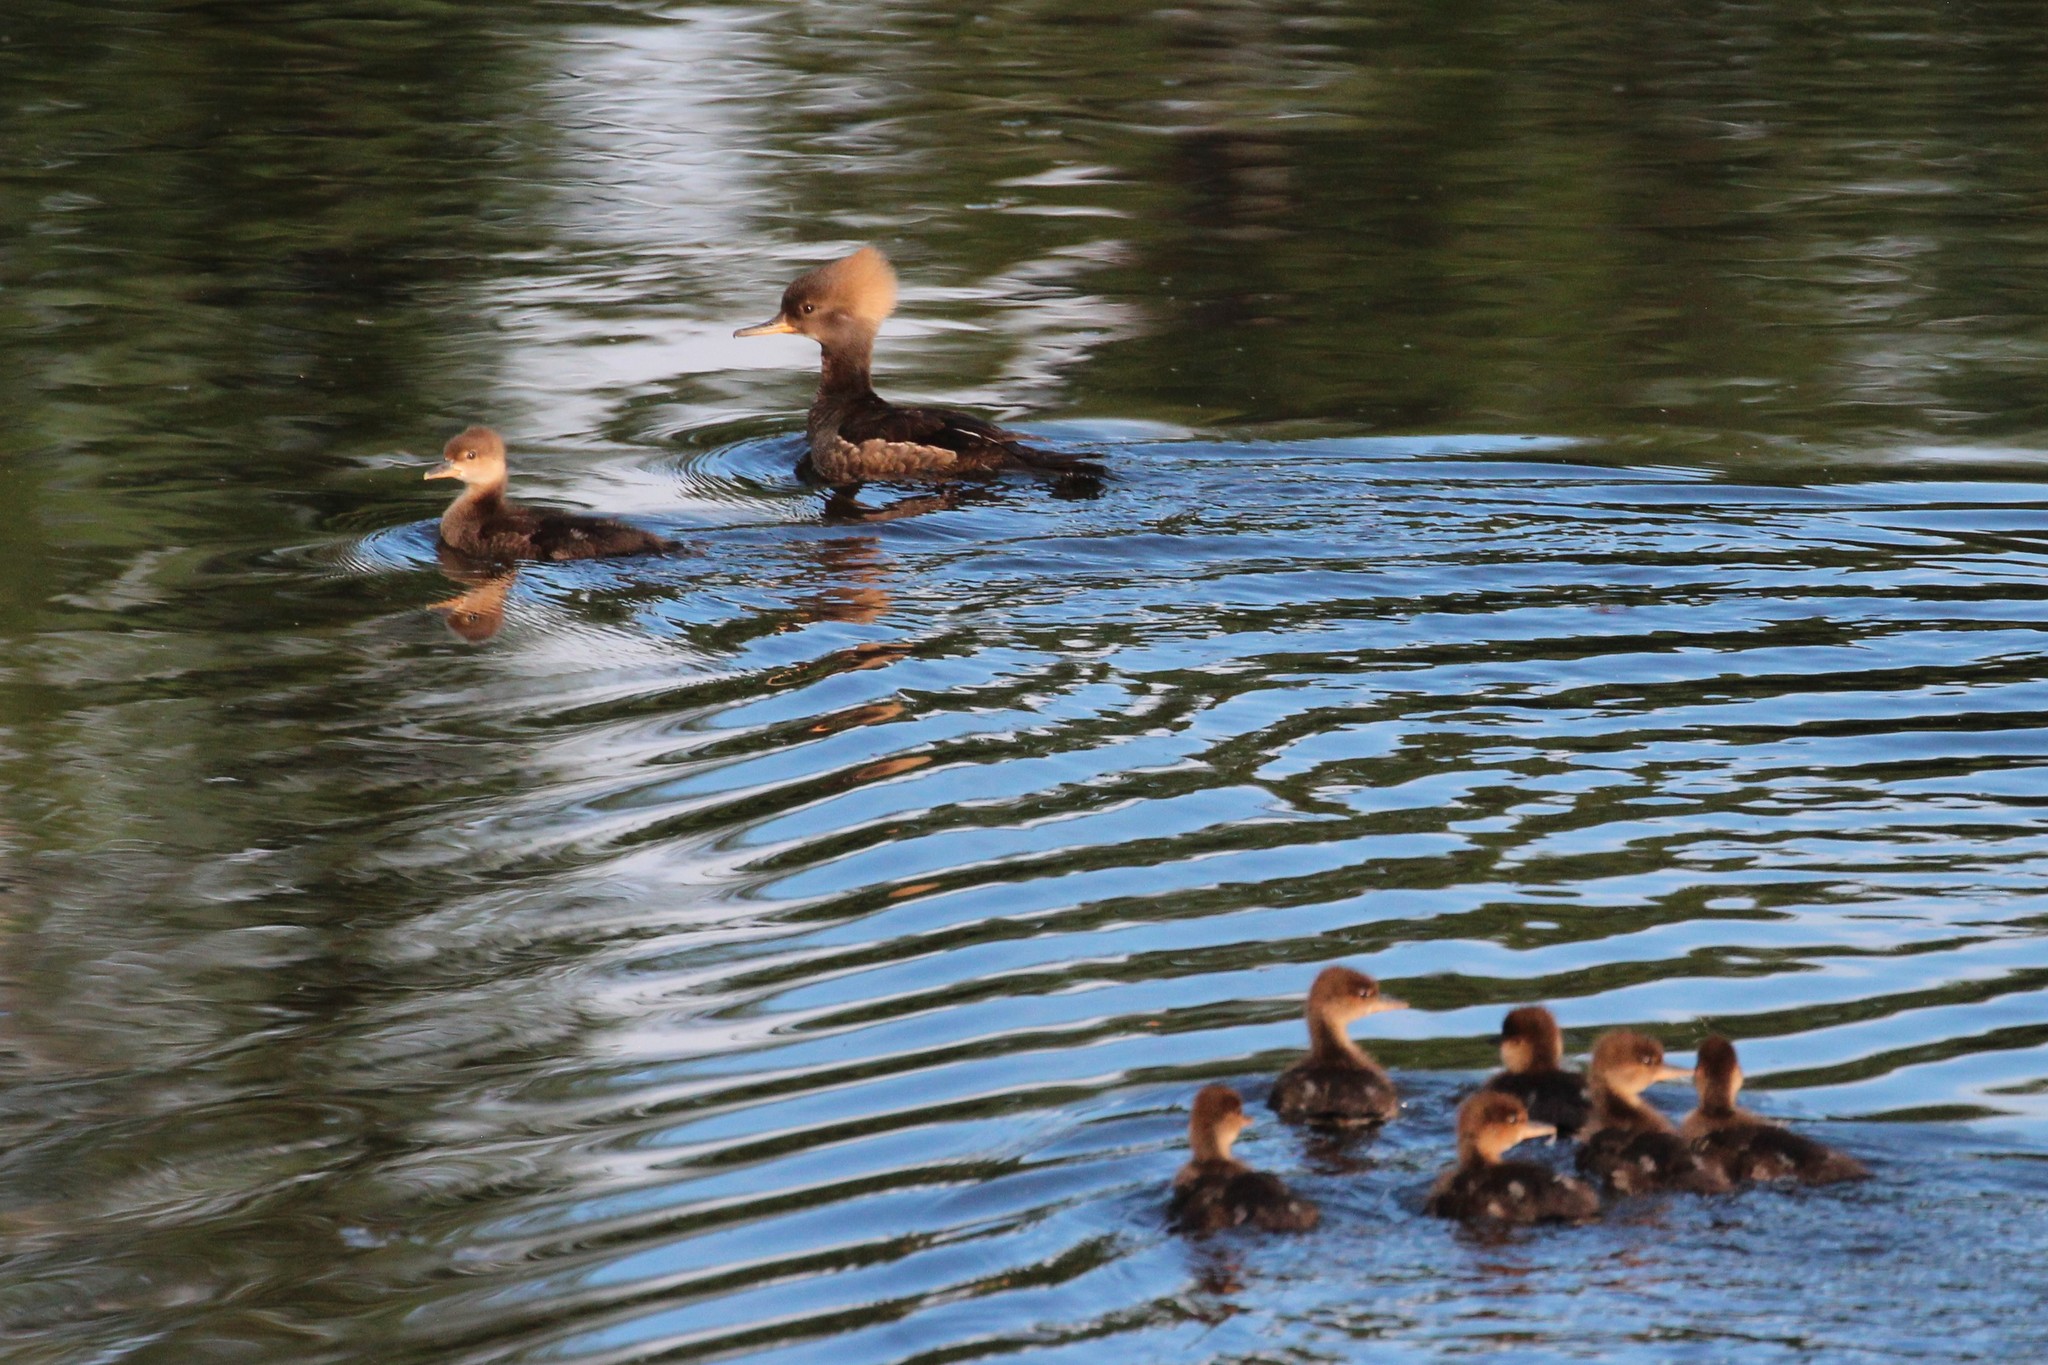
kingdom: Animalia
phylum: Chordata
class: Aves
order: Anseriformes
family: Anatidae
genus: Lophodytes
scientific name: Lophodytes cucullatus
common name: Hooded merganser
